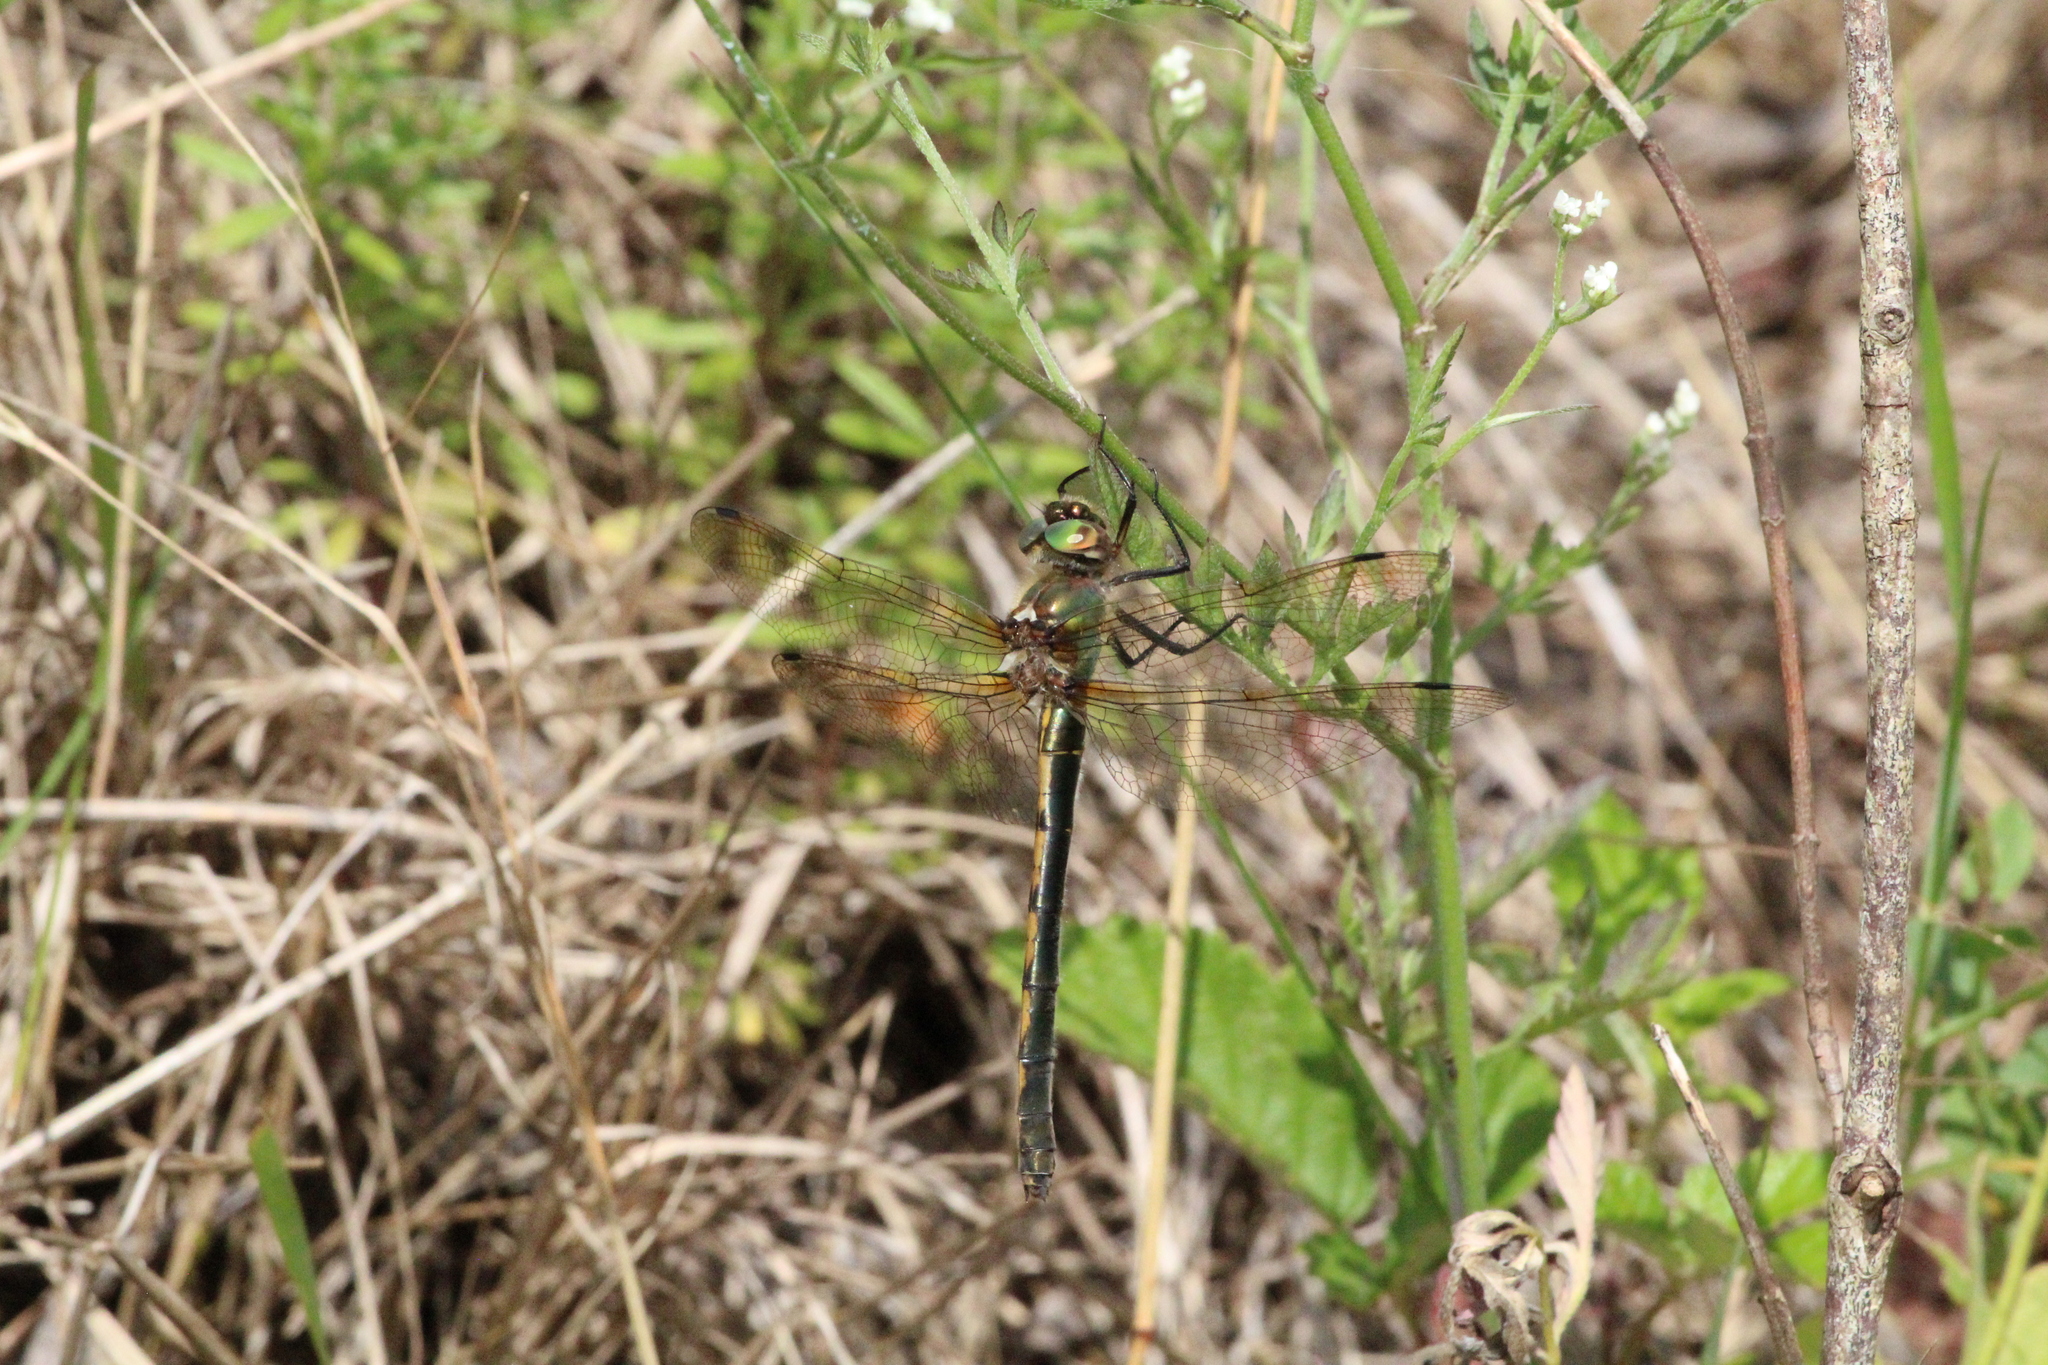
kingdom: Animalia
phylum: Arthropoda
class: Insecta
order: Odonata
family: Corduliidae
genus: Oxygastra
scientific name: Oxygastra curtisii
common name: Orange-spotted emerald
